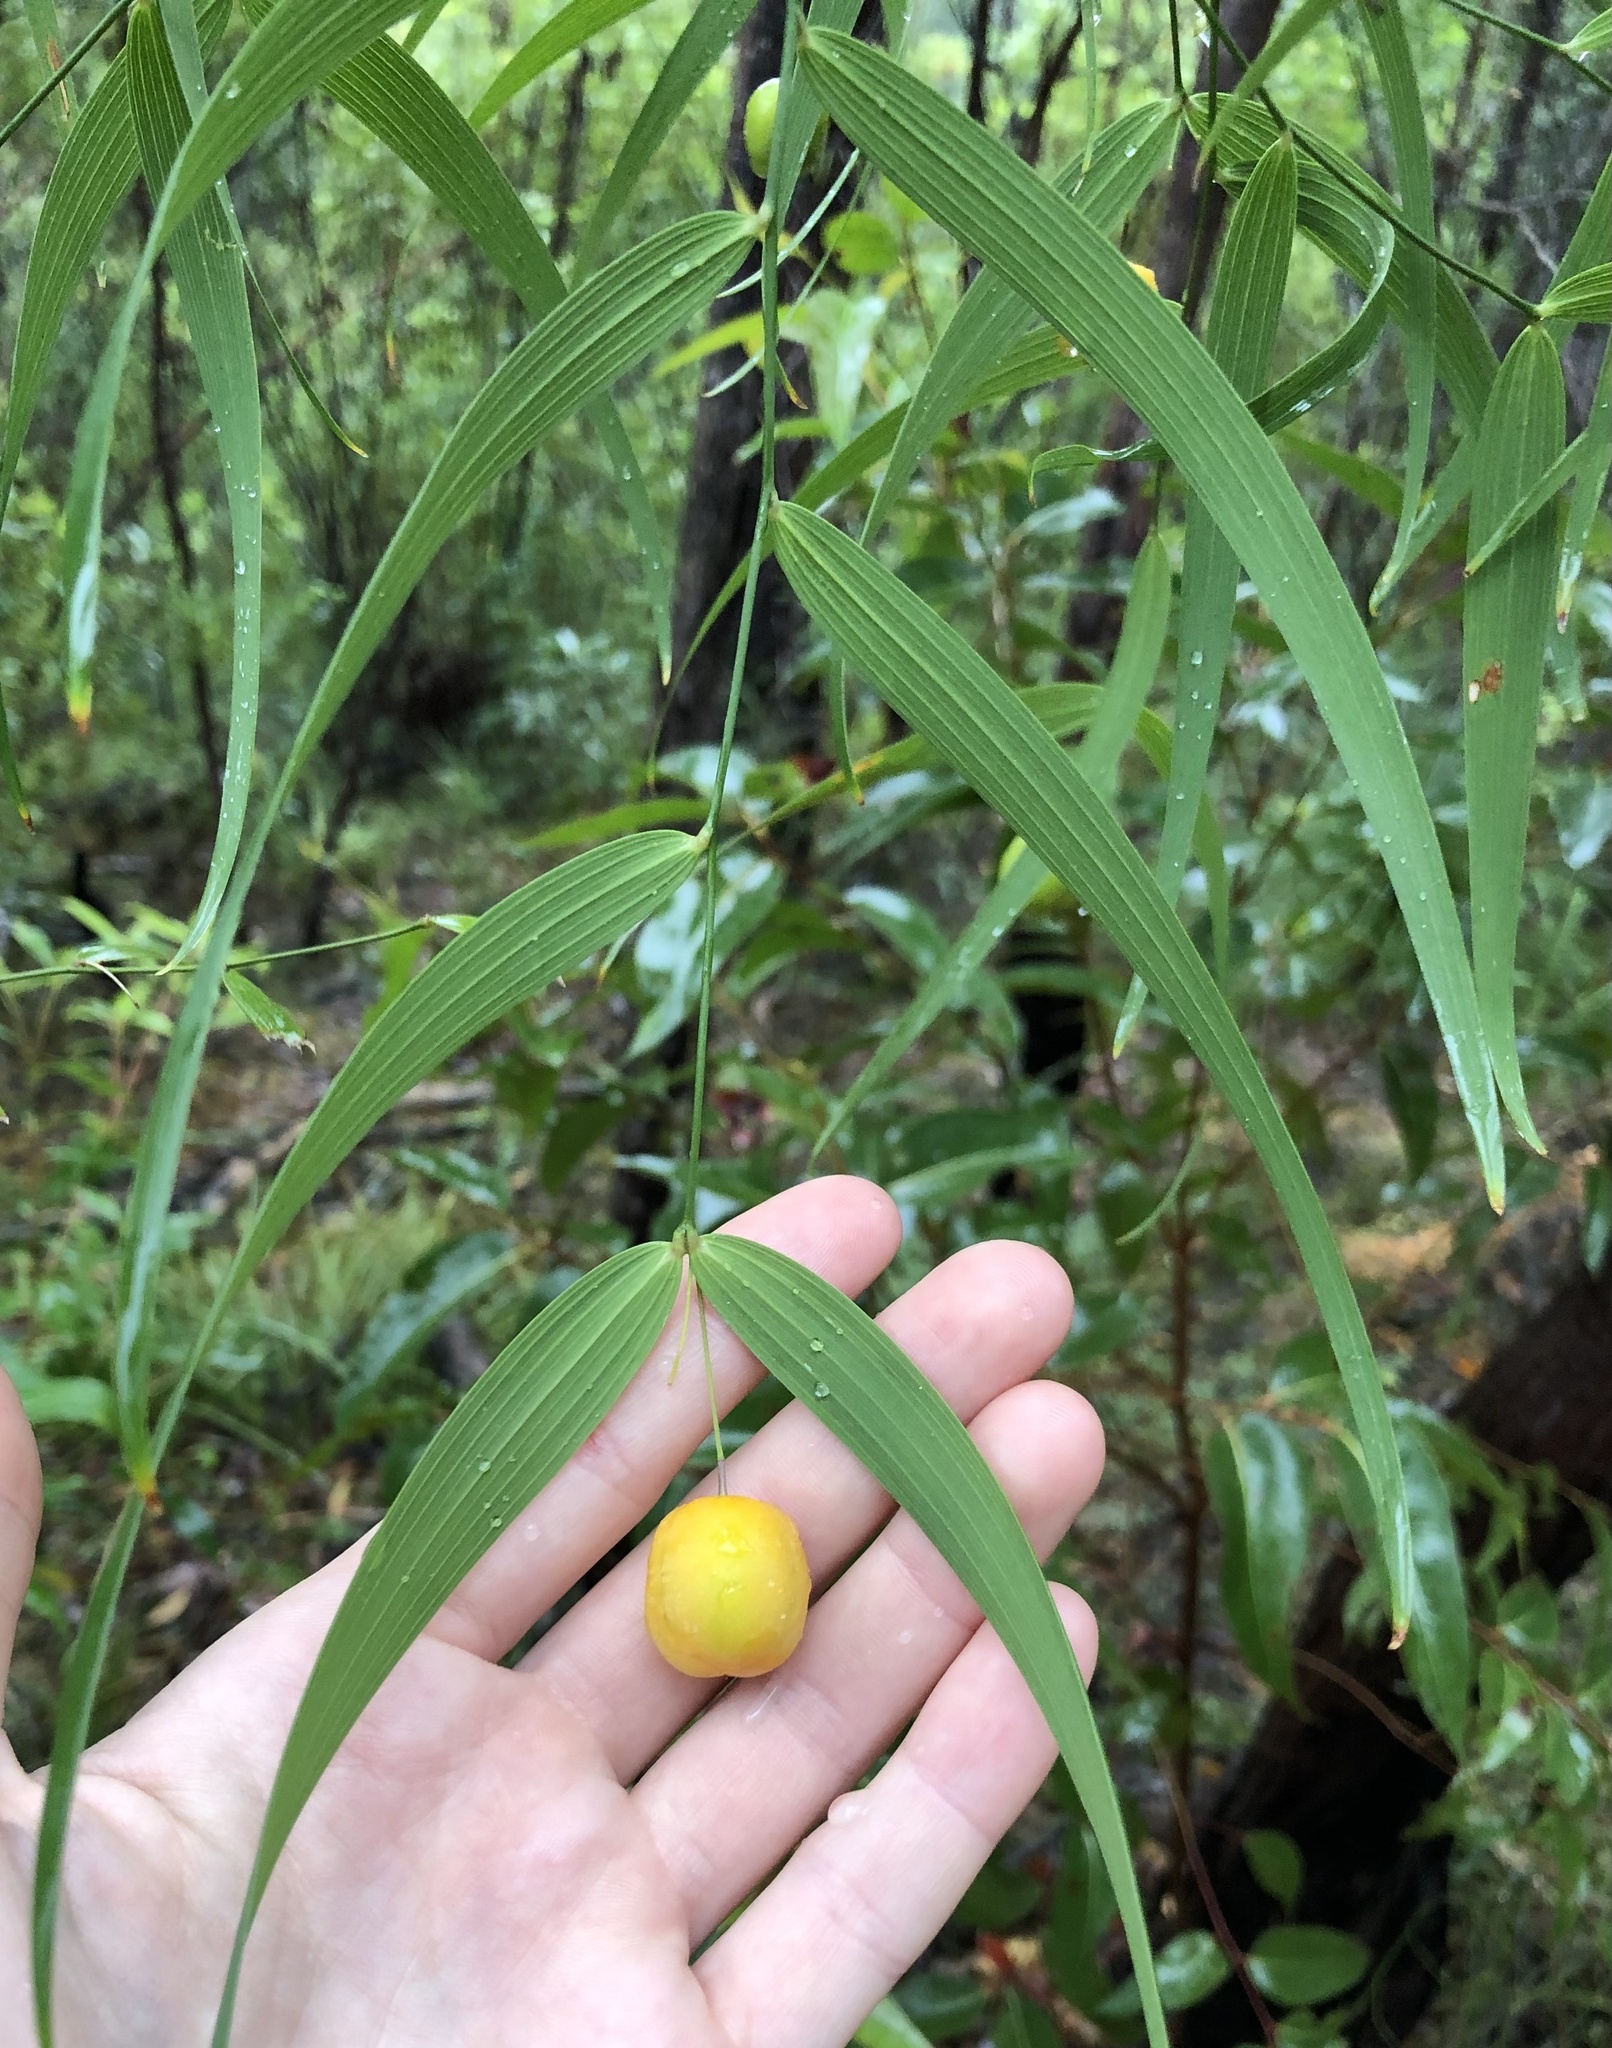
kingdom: Plantae
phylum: Tracheophyta
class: Liliopsida
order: Asparagales
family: Asparagaceae
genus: Eustrephus
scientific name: Eustrephus latifolius
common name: Orangevine
